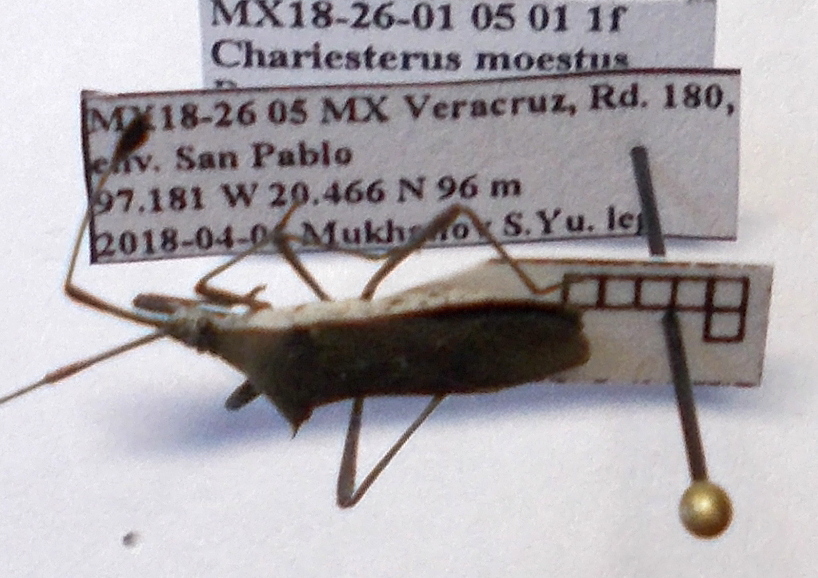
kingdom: Animalia
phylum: Arthropoda
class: Insecta
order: Hemiptera
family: Coreidae
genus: Chariesterus
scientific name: Chariesterus moestus
